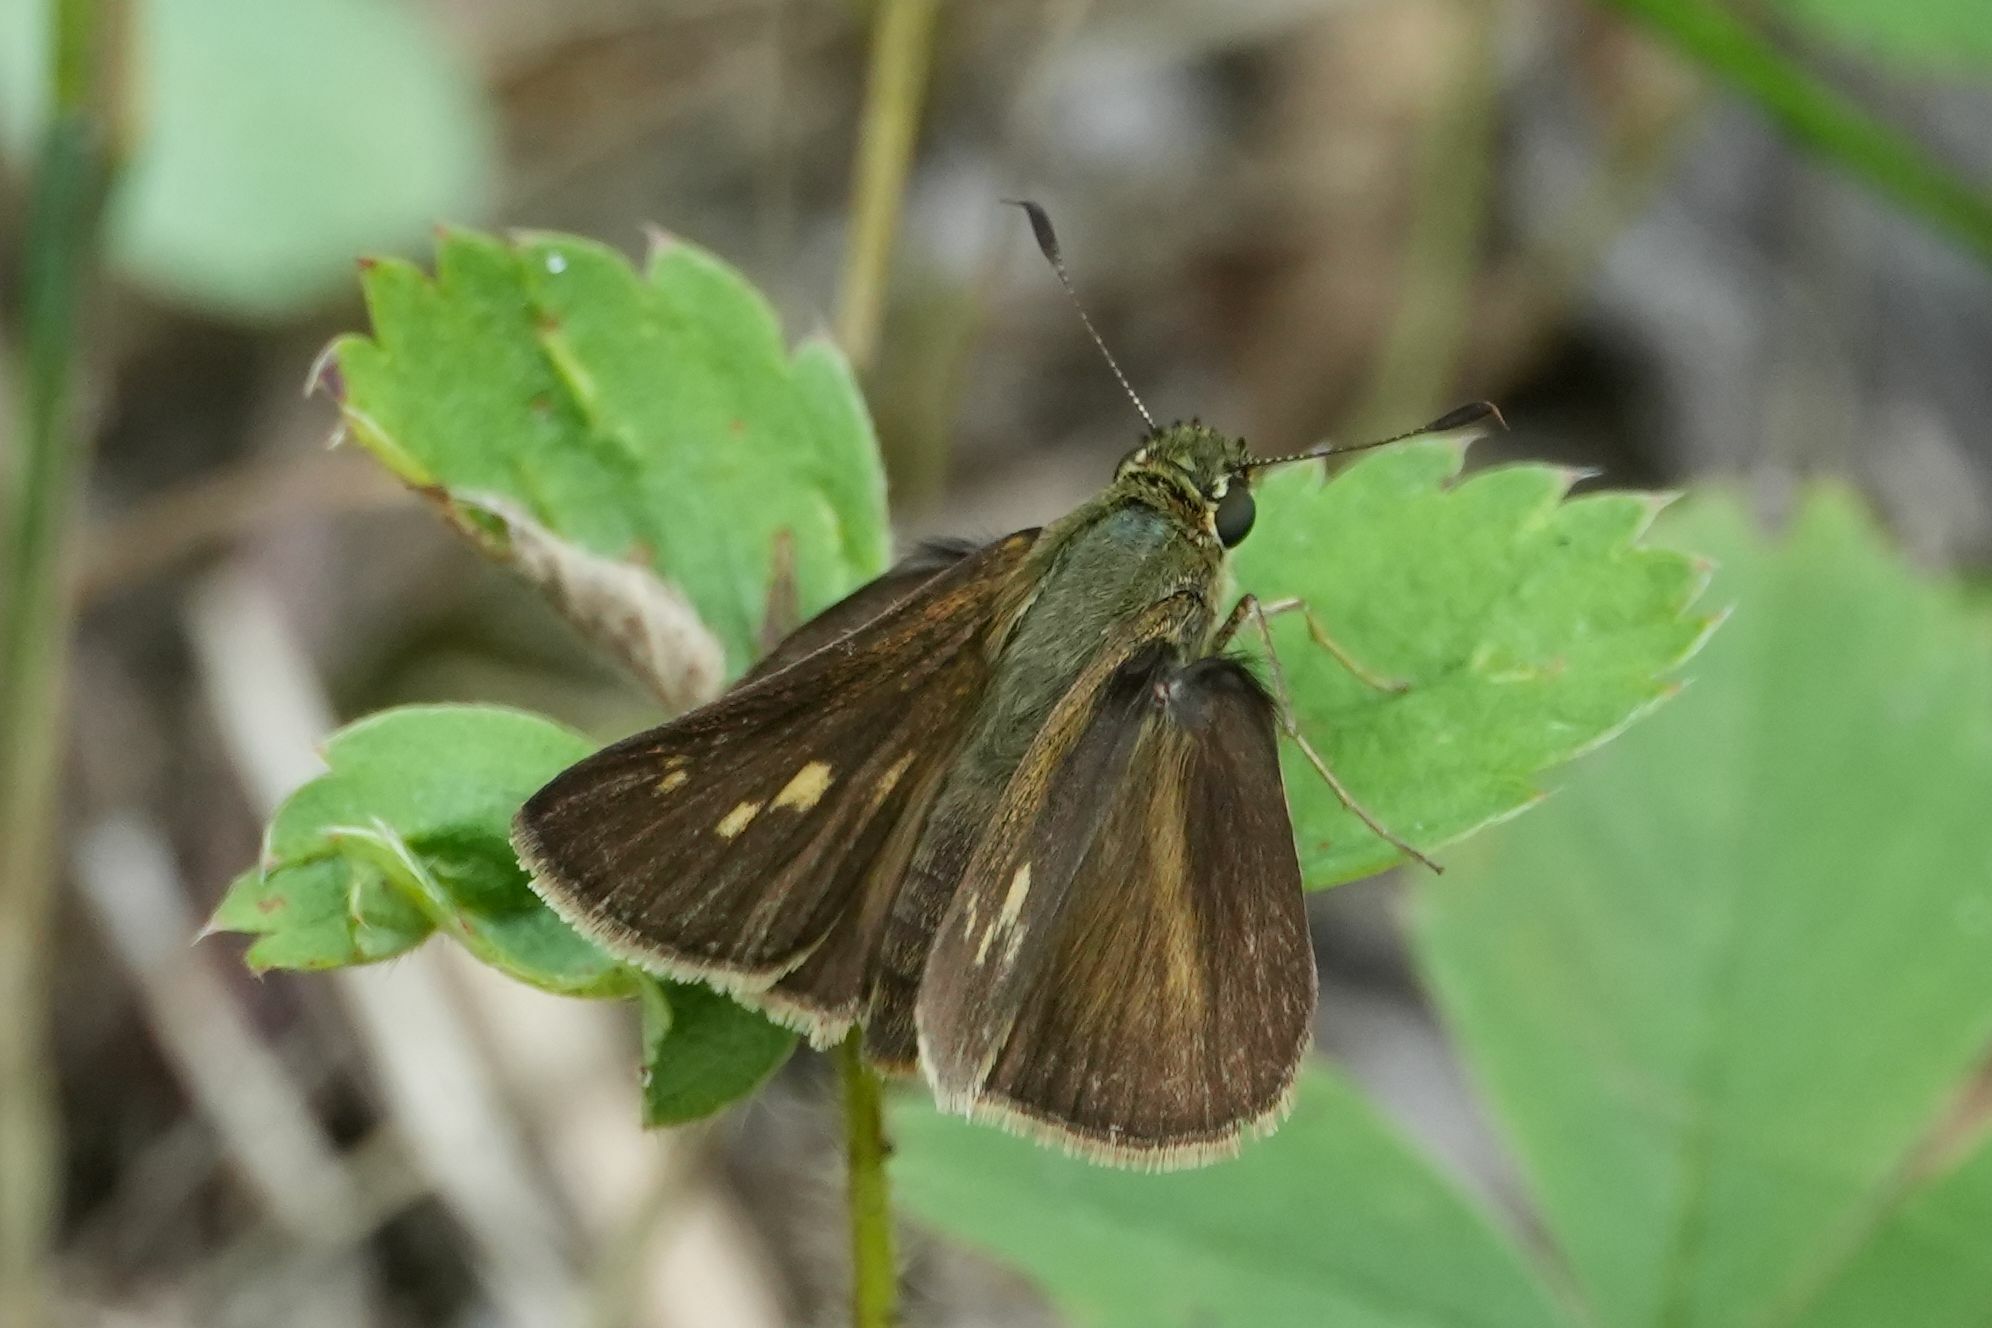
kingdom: Animalia
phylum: Arthropoda
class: Insecta
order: Lepidoptera
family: Hesperiidae
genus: Polites
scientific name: Polites egeremet
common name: Northern broken-dash
